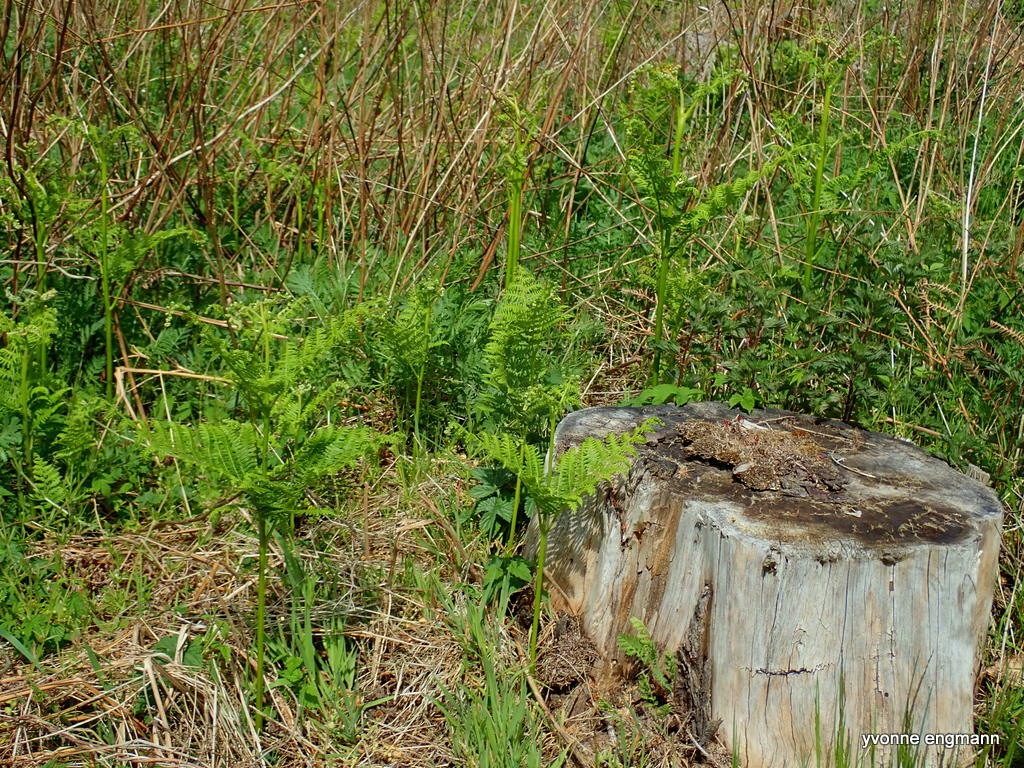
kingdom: Plantae
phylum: Tracheophyta
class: Polypodiopsida
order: Polypodiales
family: Dennstaedtiaceae
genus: Pteridium
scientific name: Pteridium aquilinum
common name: Bracken
